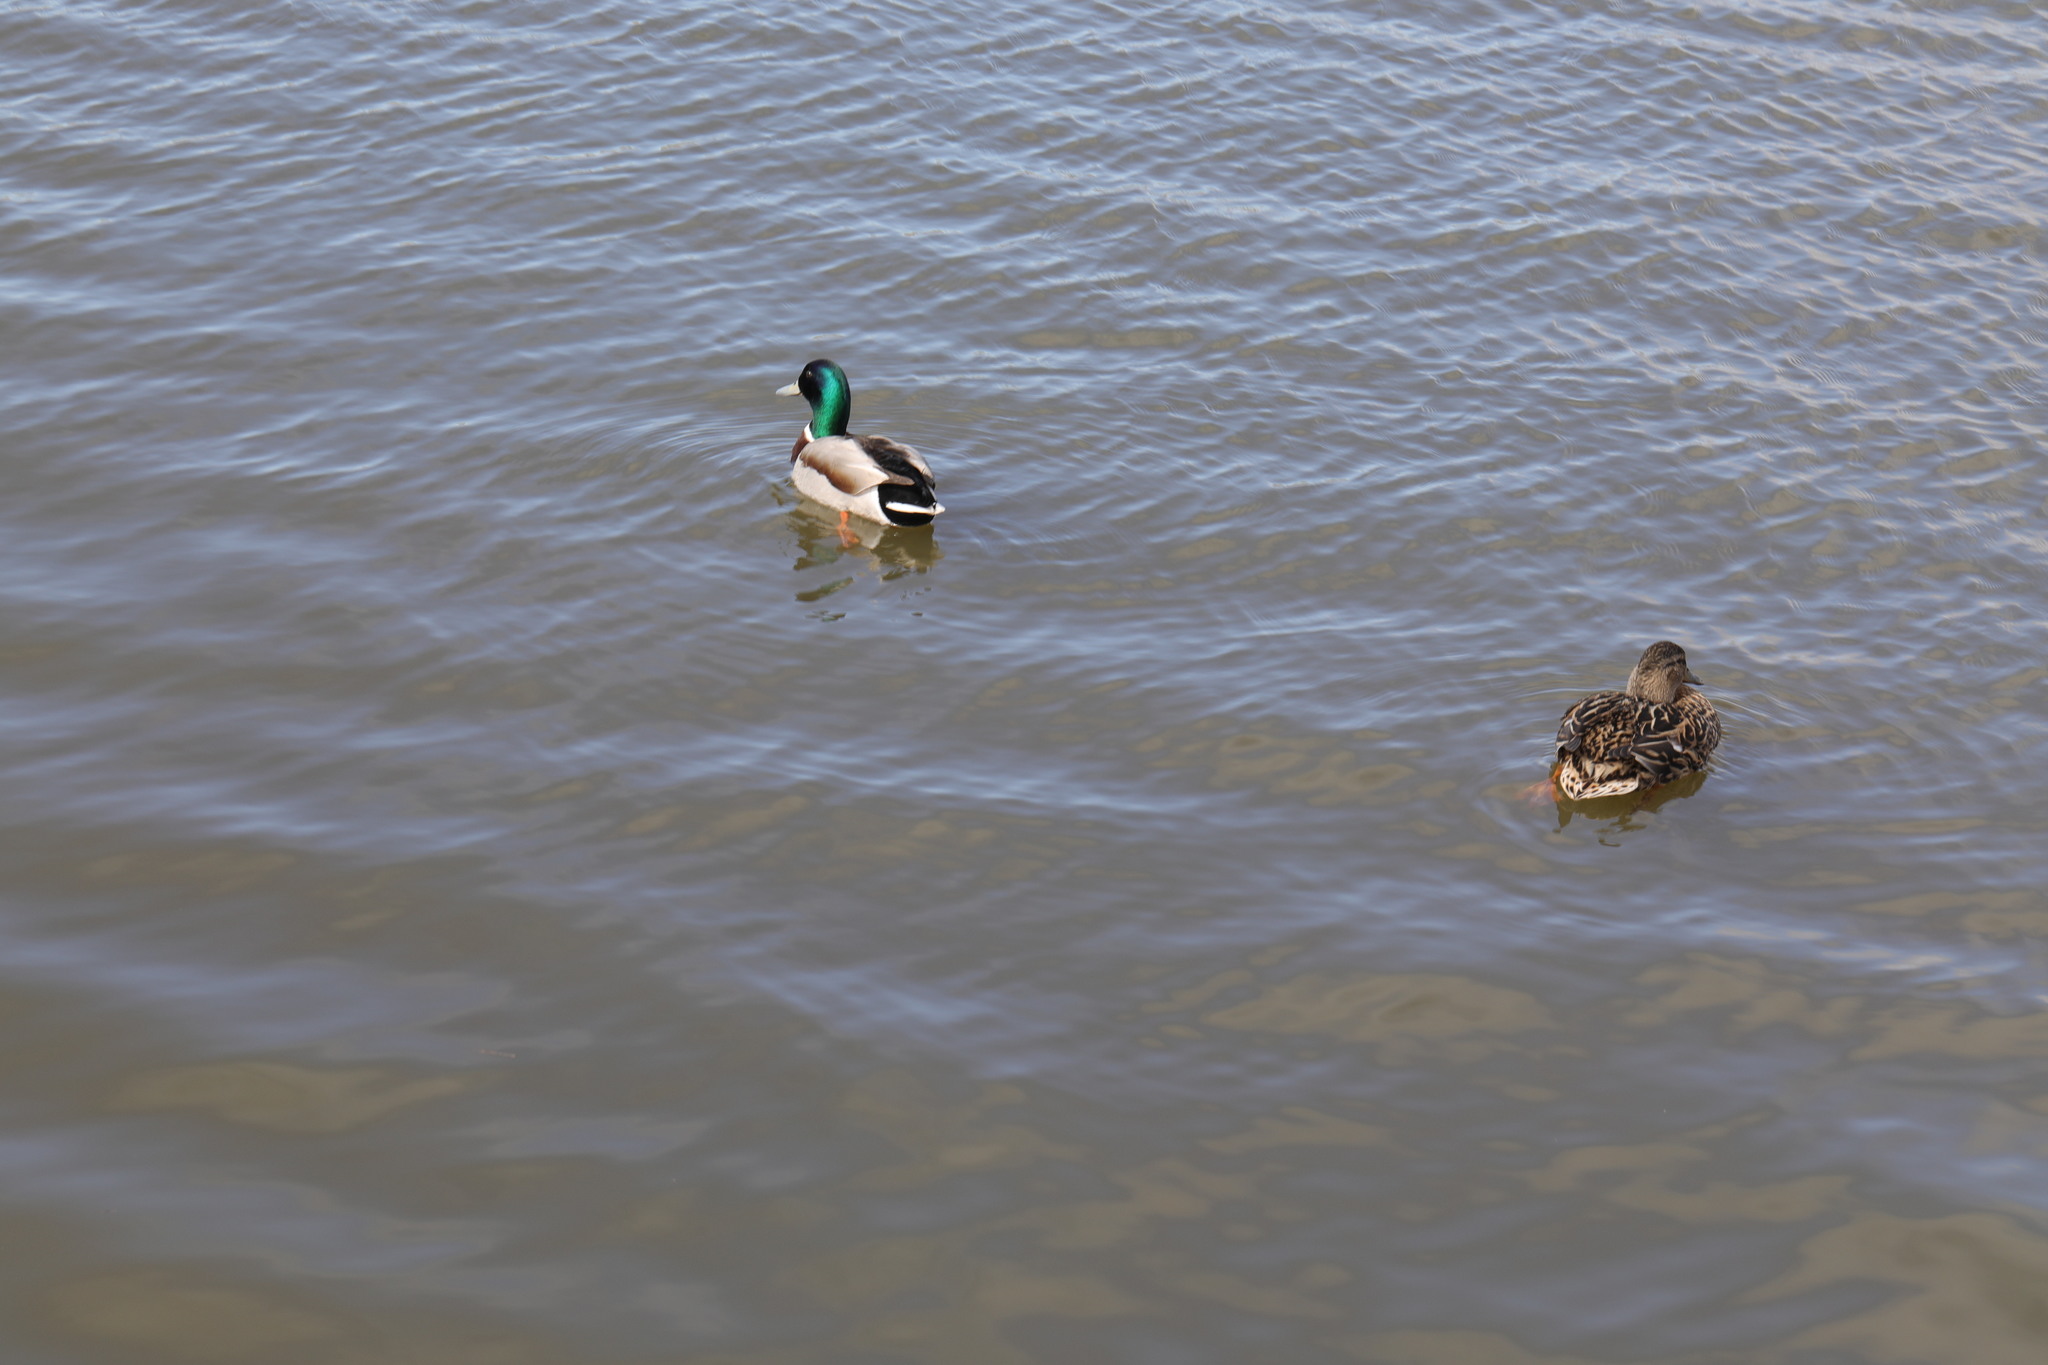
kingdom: Animalia
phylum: Chordata
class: Aves
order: Anseriformes
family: Anatidae
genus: Anas
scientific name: Anas platyrhynchos
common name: Mallard
